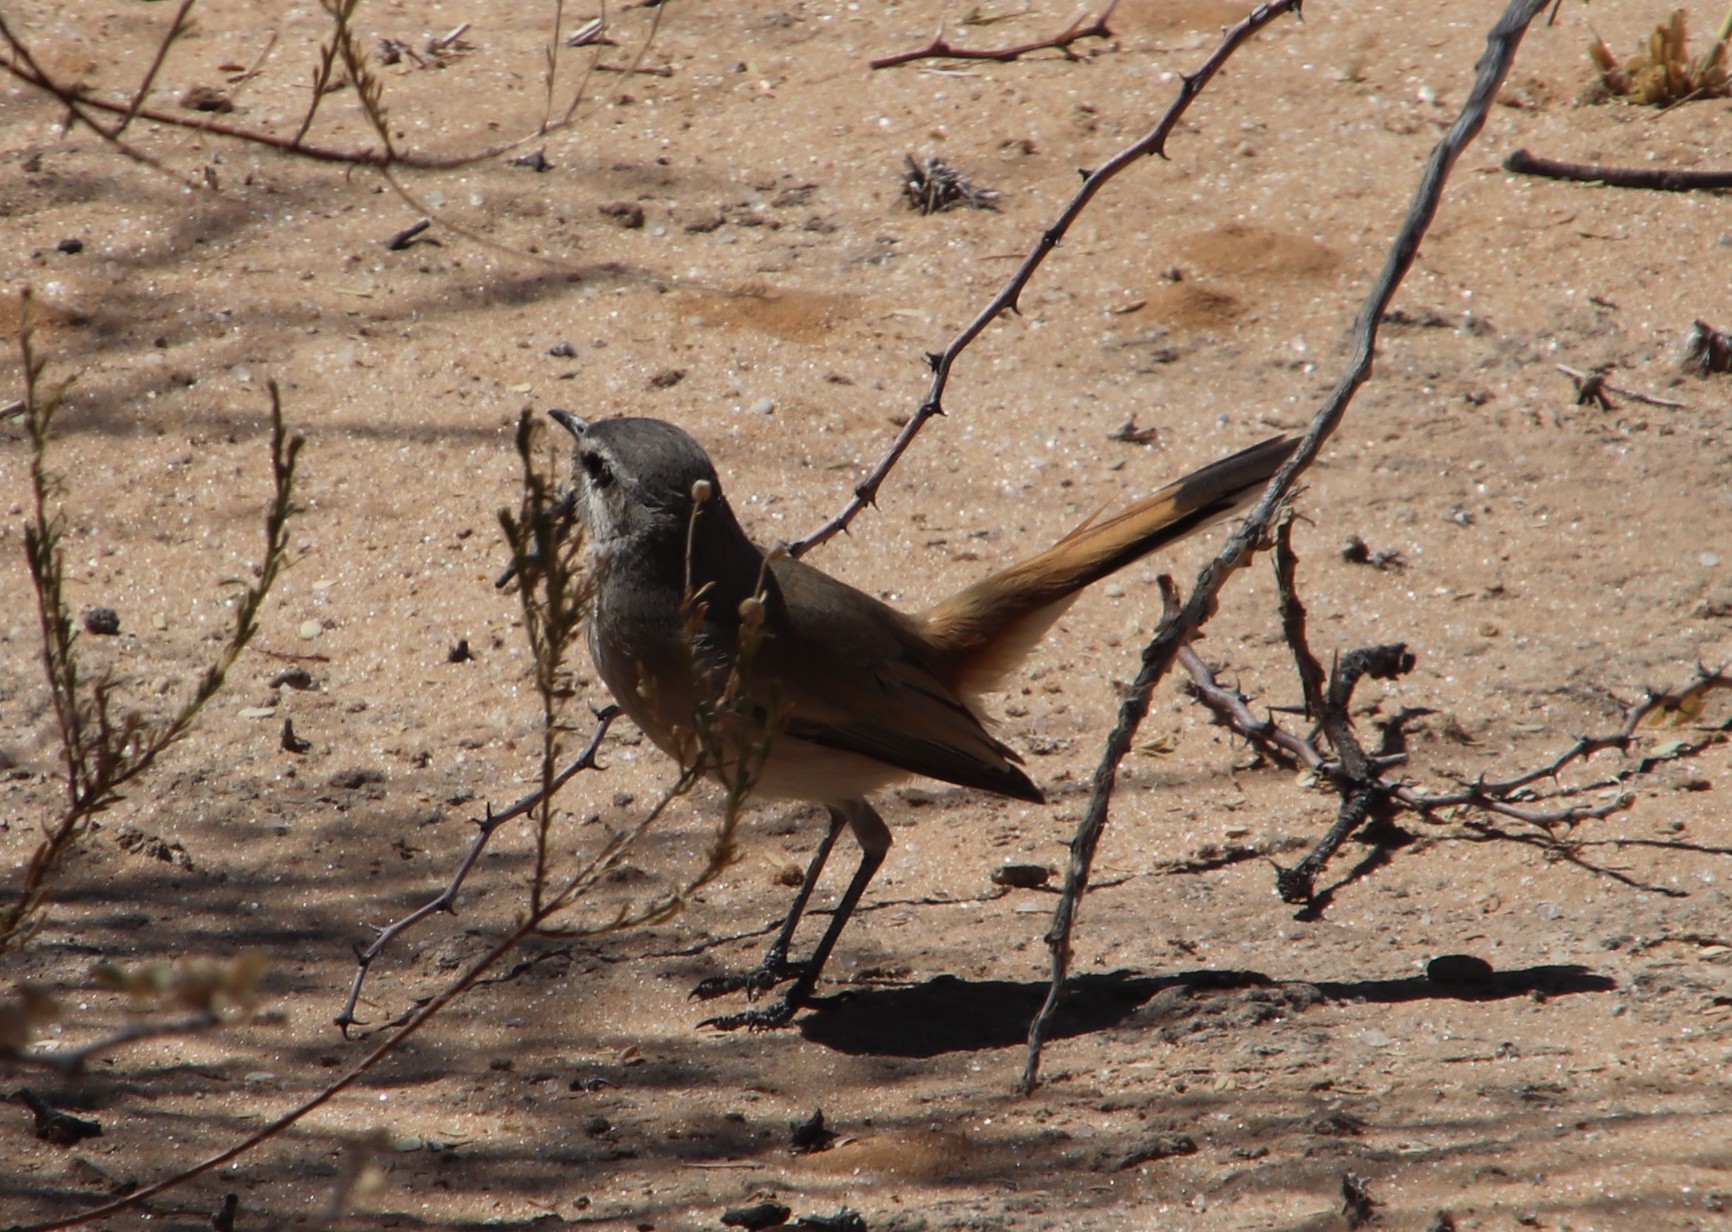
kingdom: Animalia
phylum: Chordata
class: Aves
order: Passeriformes
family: Muscicapidae
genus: Erythropygia
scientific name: Erythropygia paena
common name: Kalahari scrub robin
